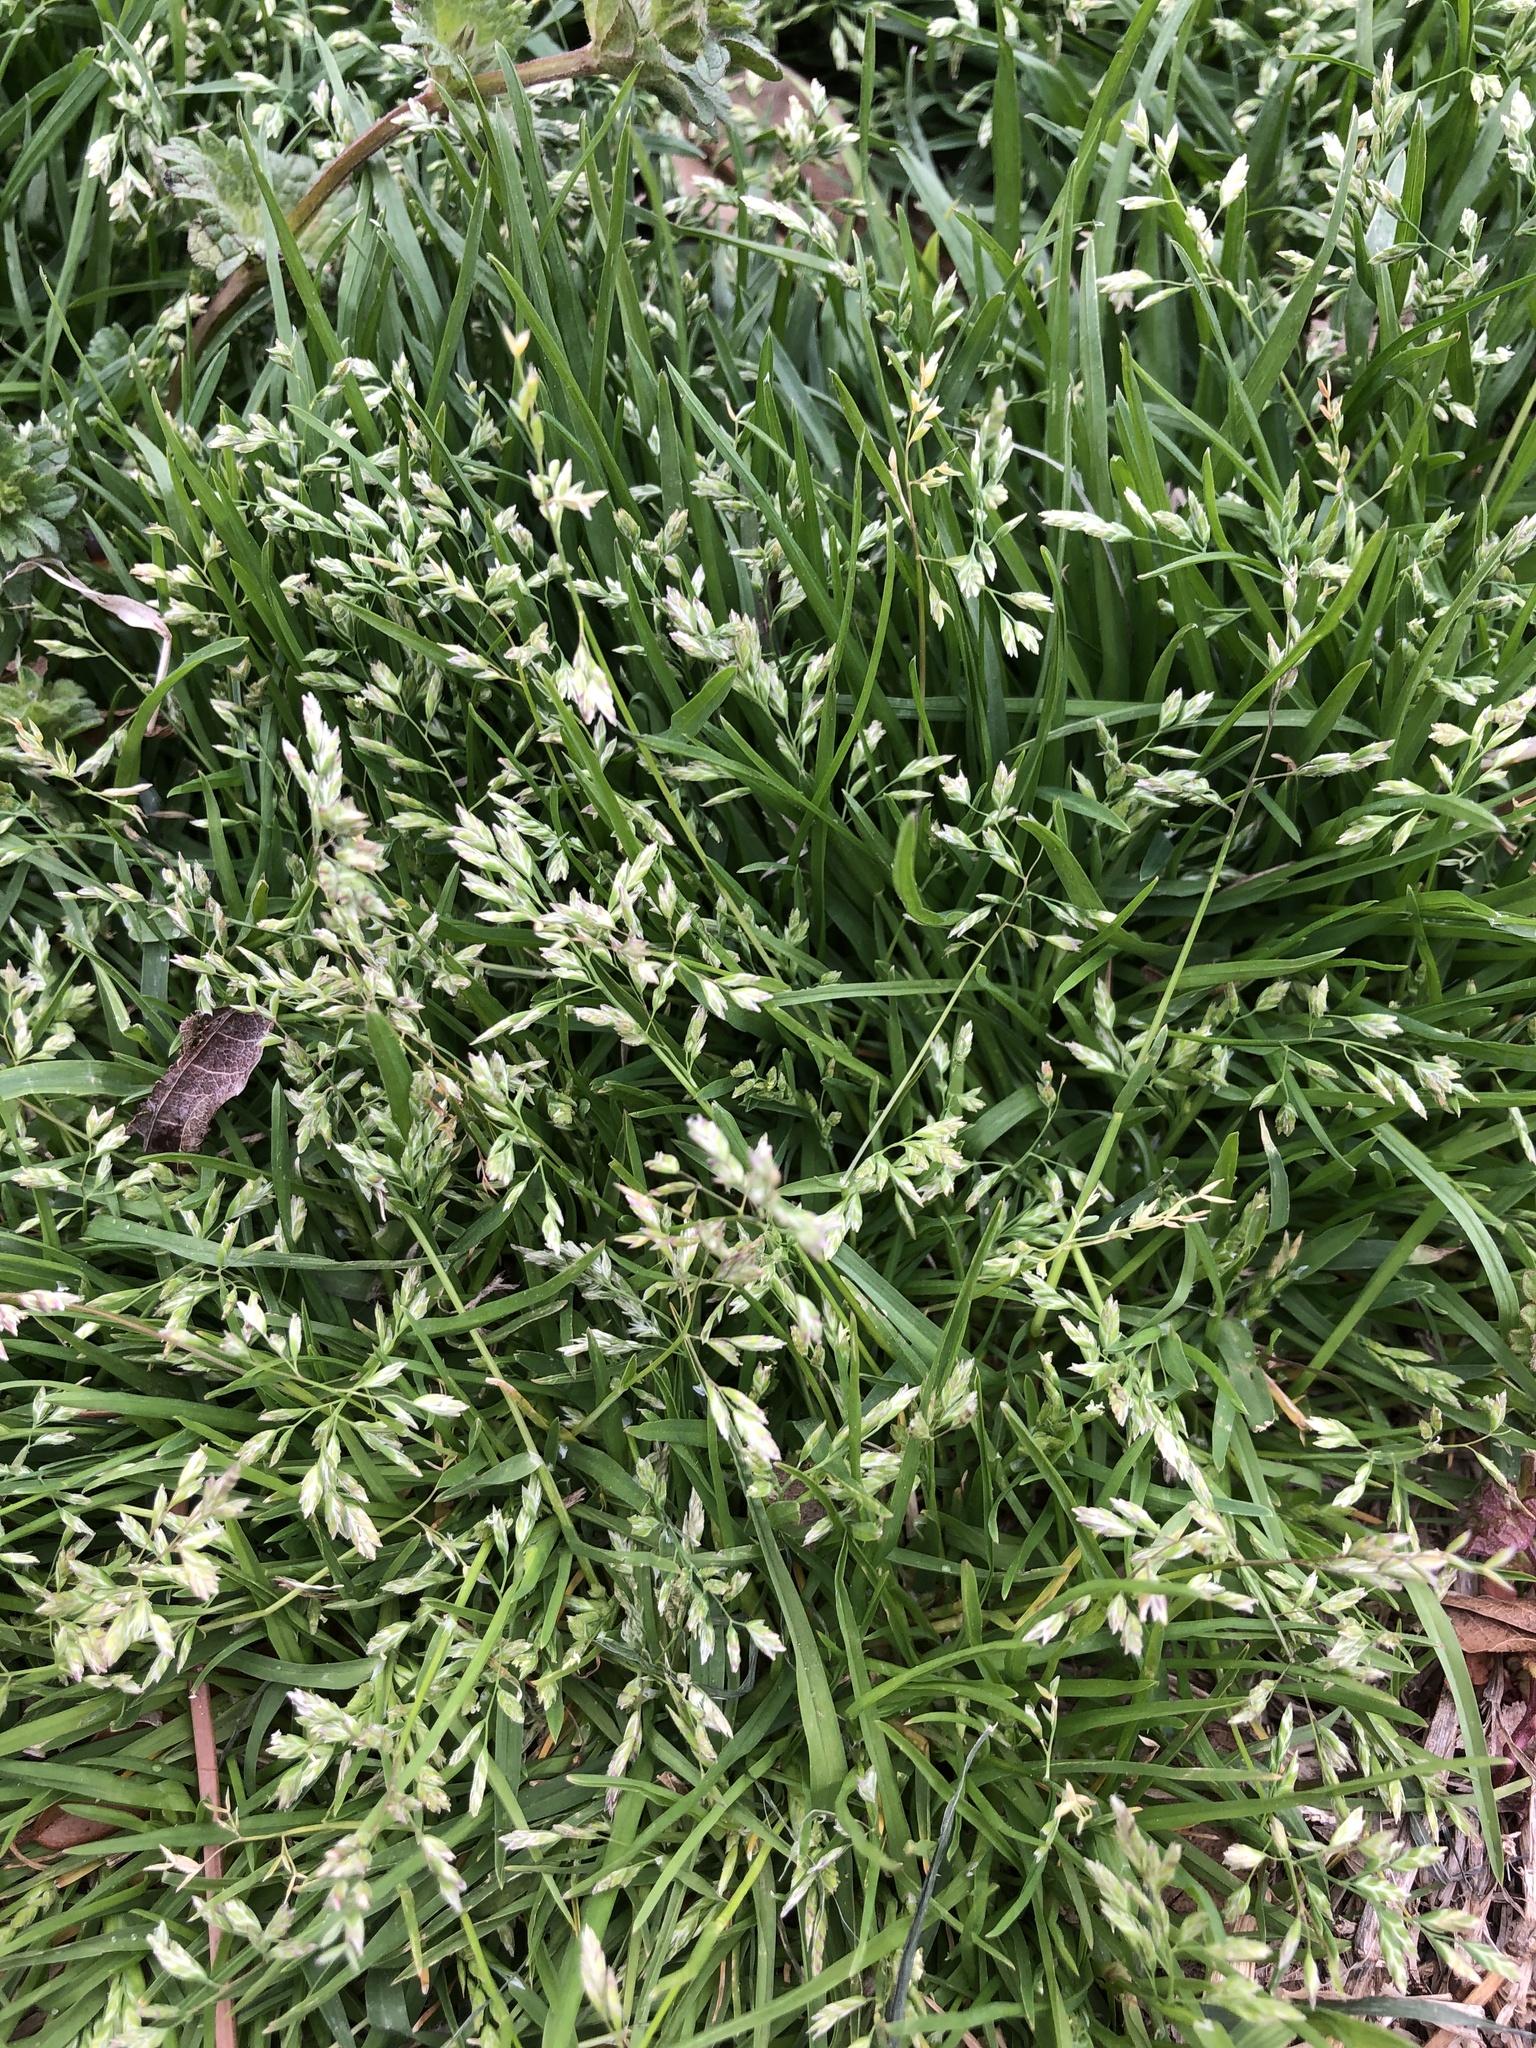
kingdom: Plantae
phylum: Tracheophyta
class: Liliopsida
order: Poales
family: Poaceae
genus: Poa
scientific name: Poa annua
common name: Annual bluegrass
